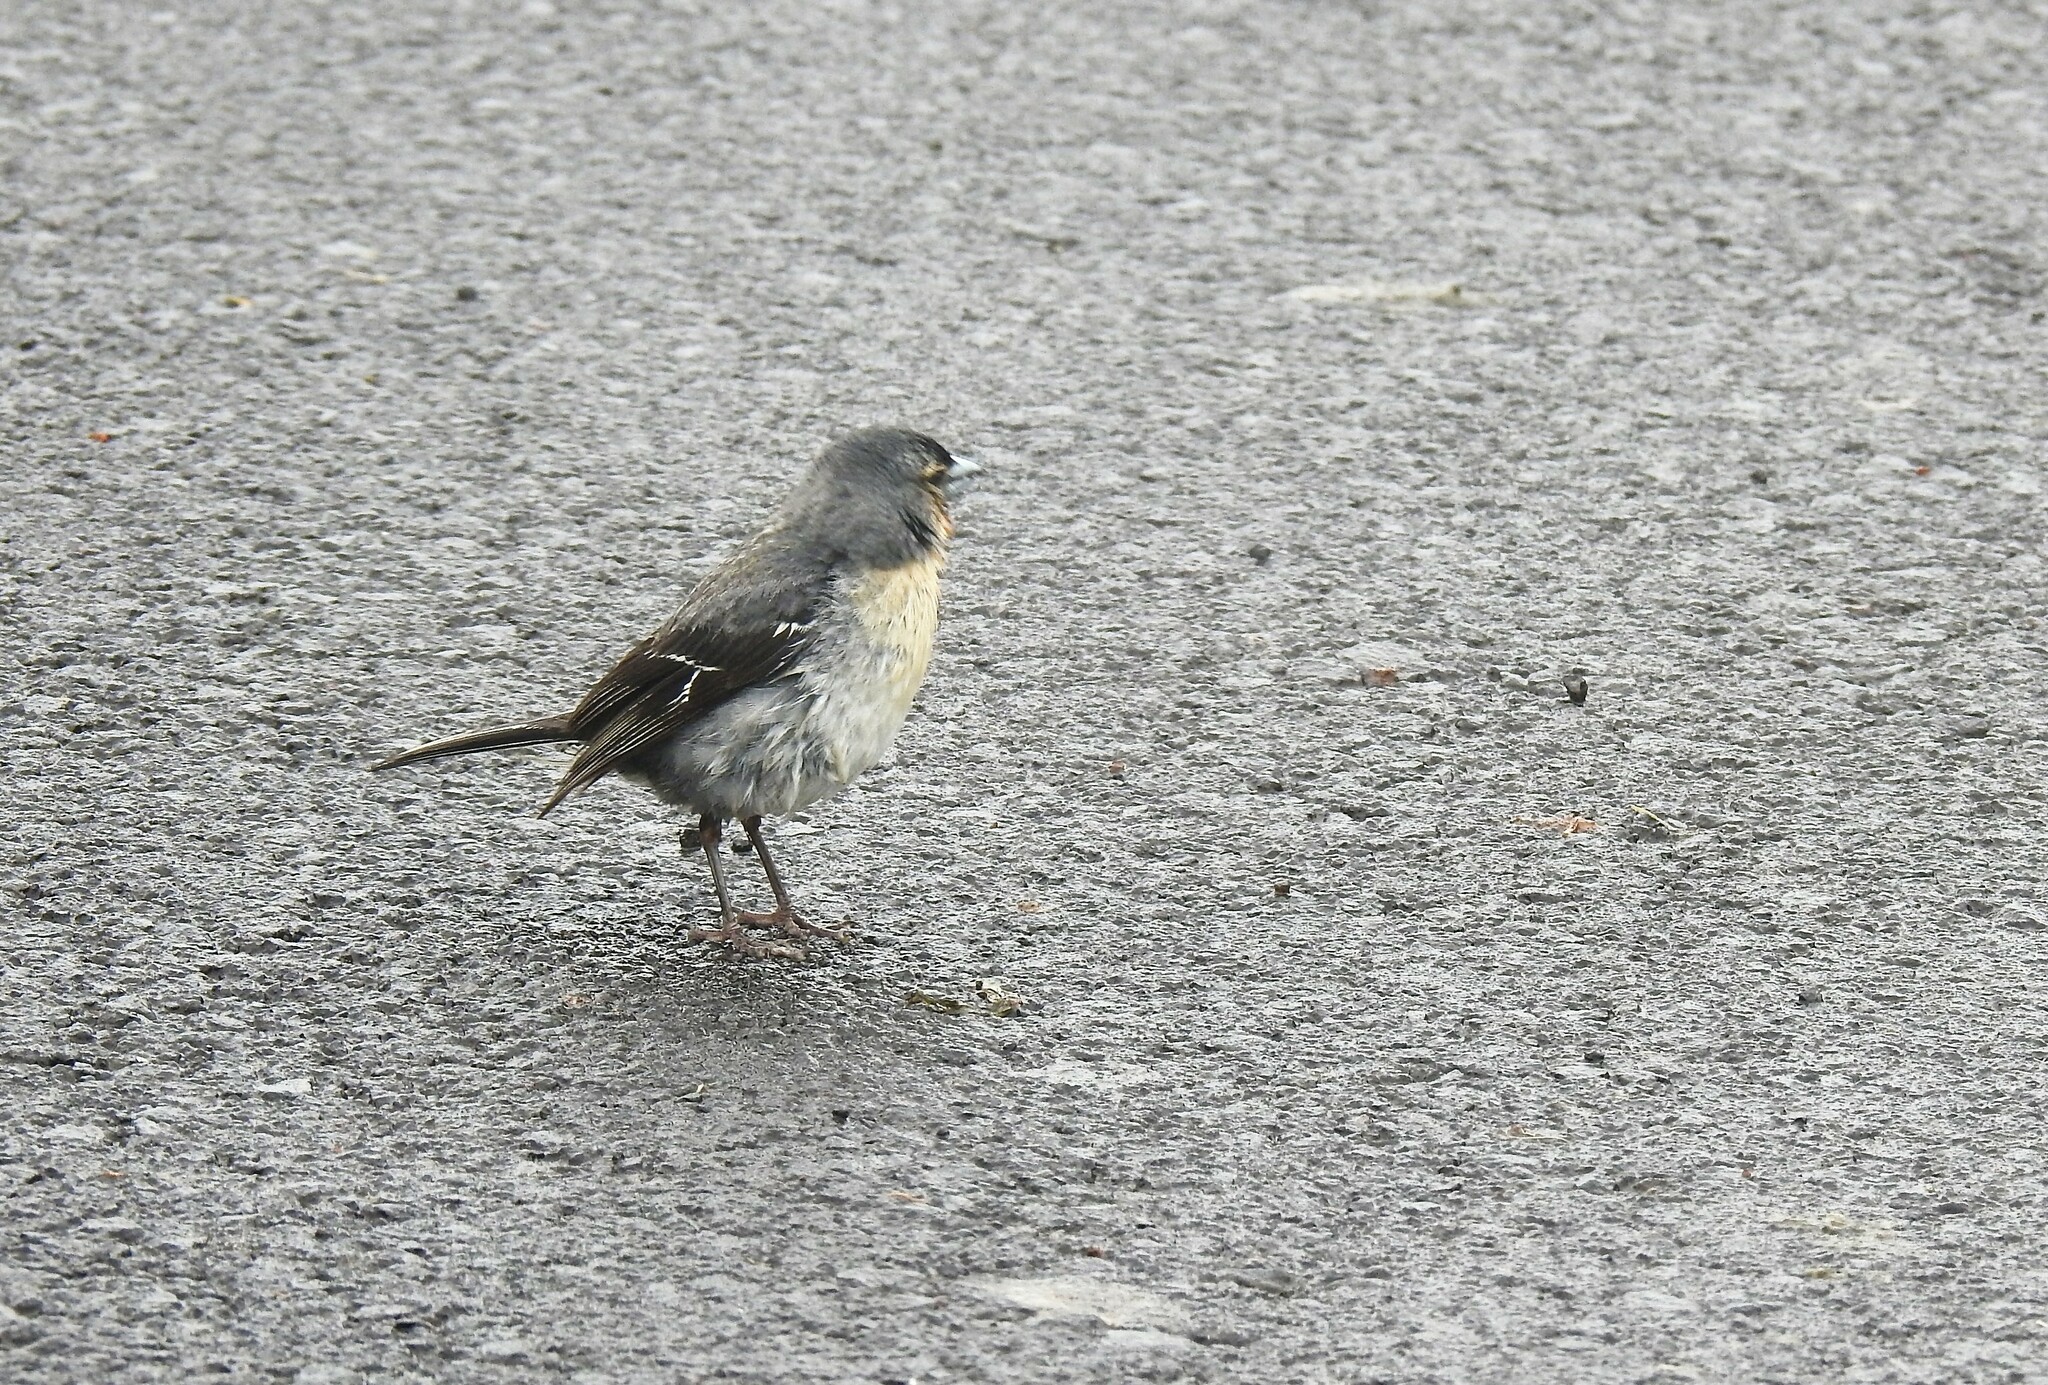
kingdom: Animalia
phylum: Chordata
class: Aves
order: Passeriformes
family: Fringillidae
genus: Fringilla
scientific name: Fringilla moreletti
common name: Azores chaffinch
